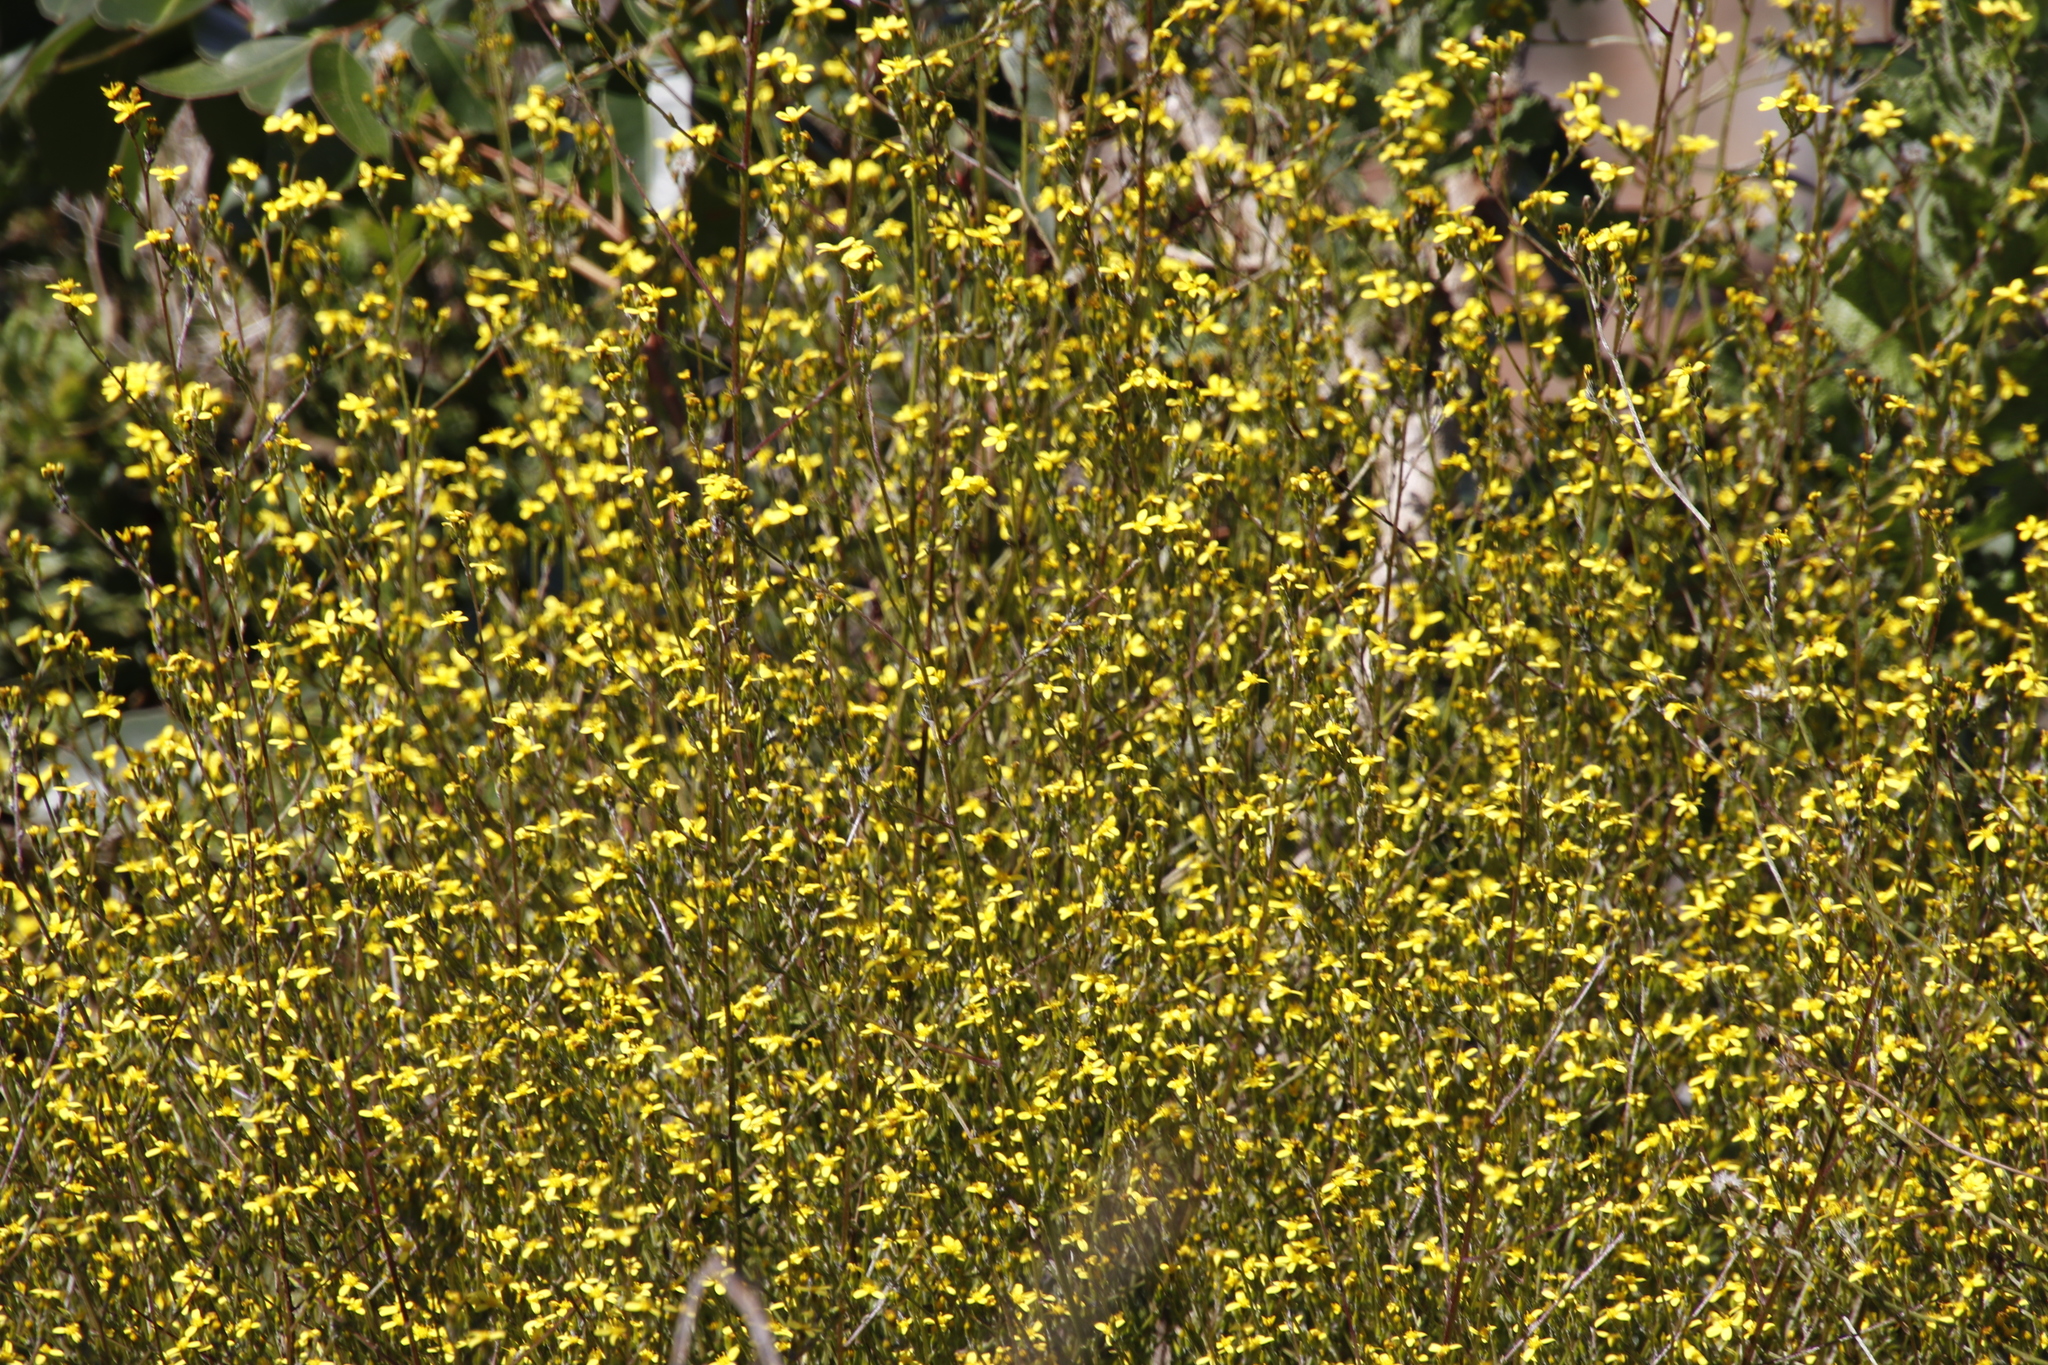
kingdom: Plantae
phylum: Tracheophyta
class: Magnoliopsida
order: Asterales
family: Asteraceae
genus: Senecio
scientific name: Senecio pubigerus
